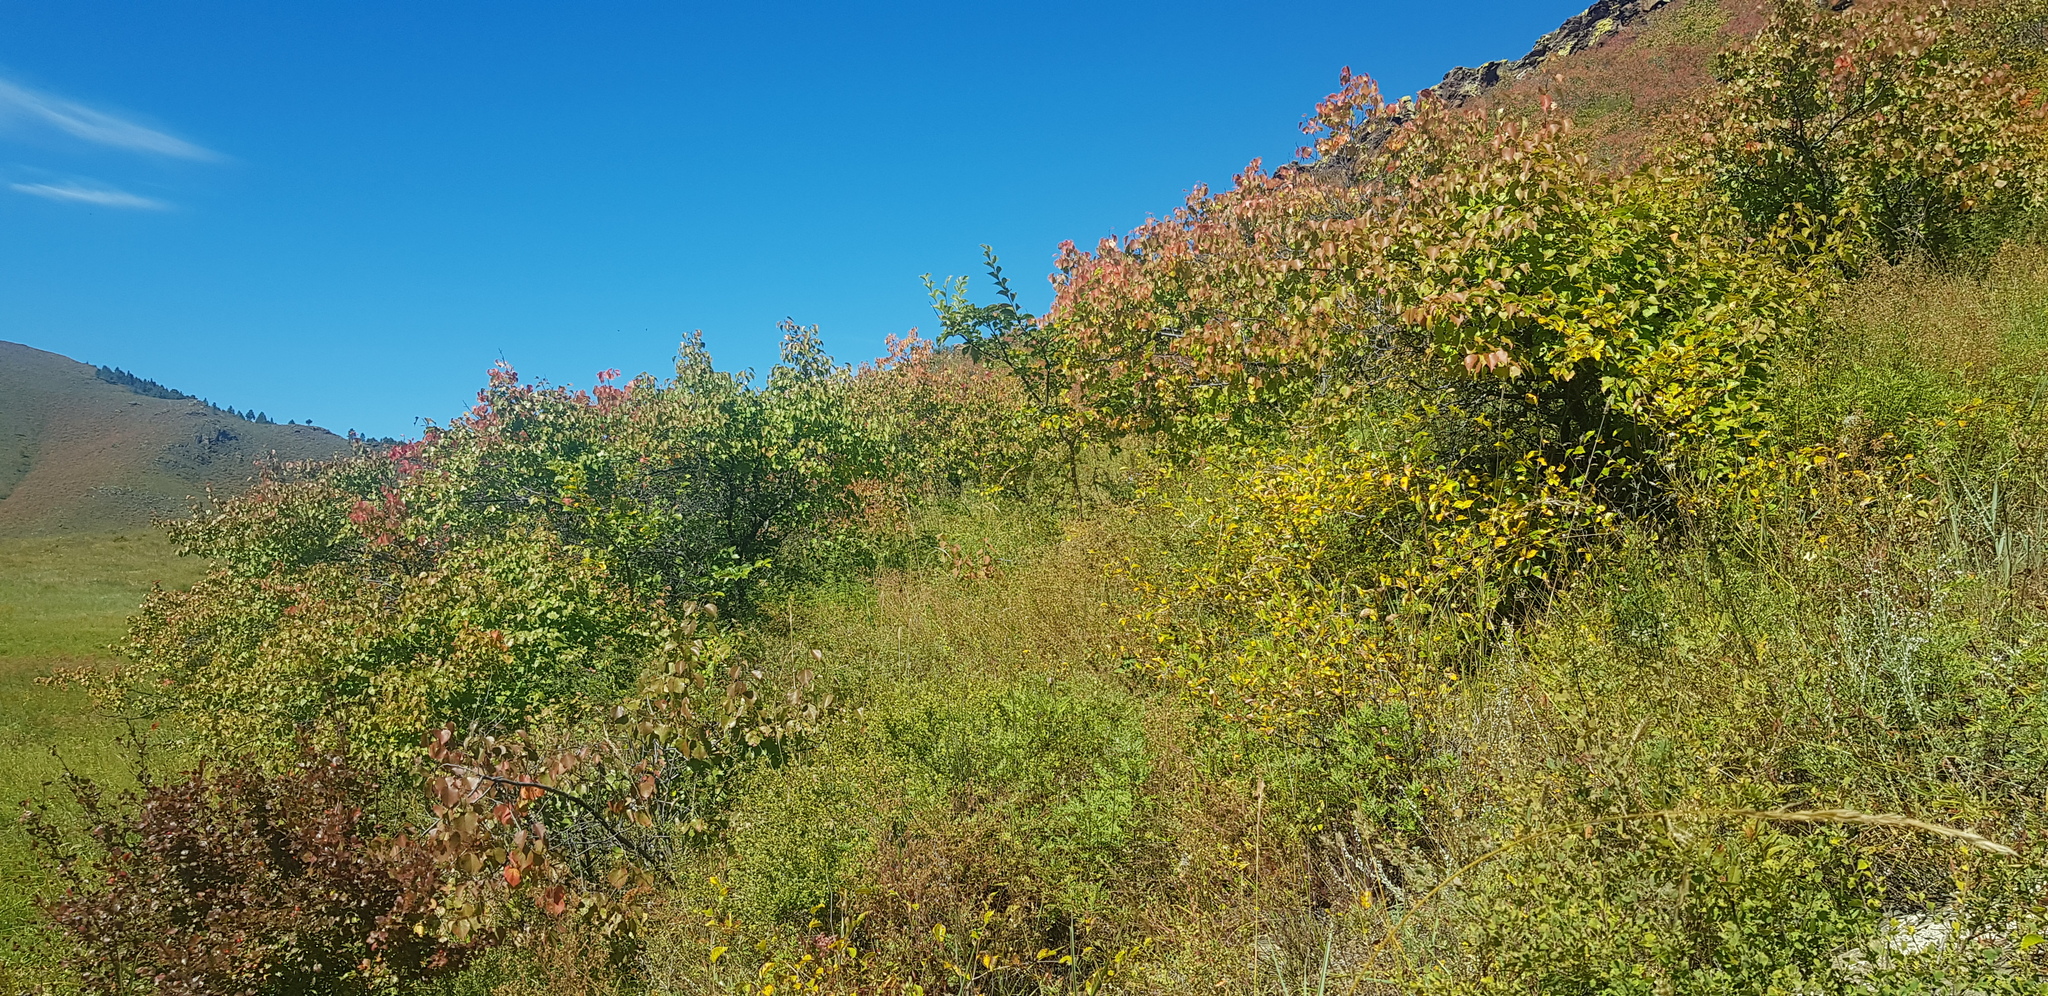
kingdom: Plantae
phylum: Tracheophyta
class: Magnoliopsida
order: Rosales
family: Rosaceae
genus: Prunus
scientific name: Prunus sibirica
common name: Siberian apricot
